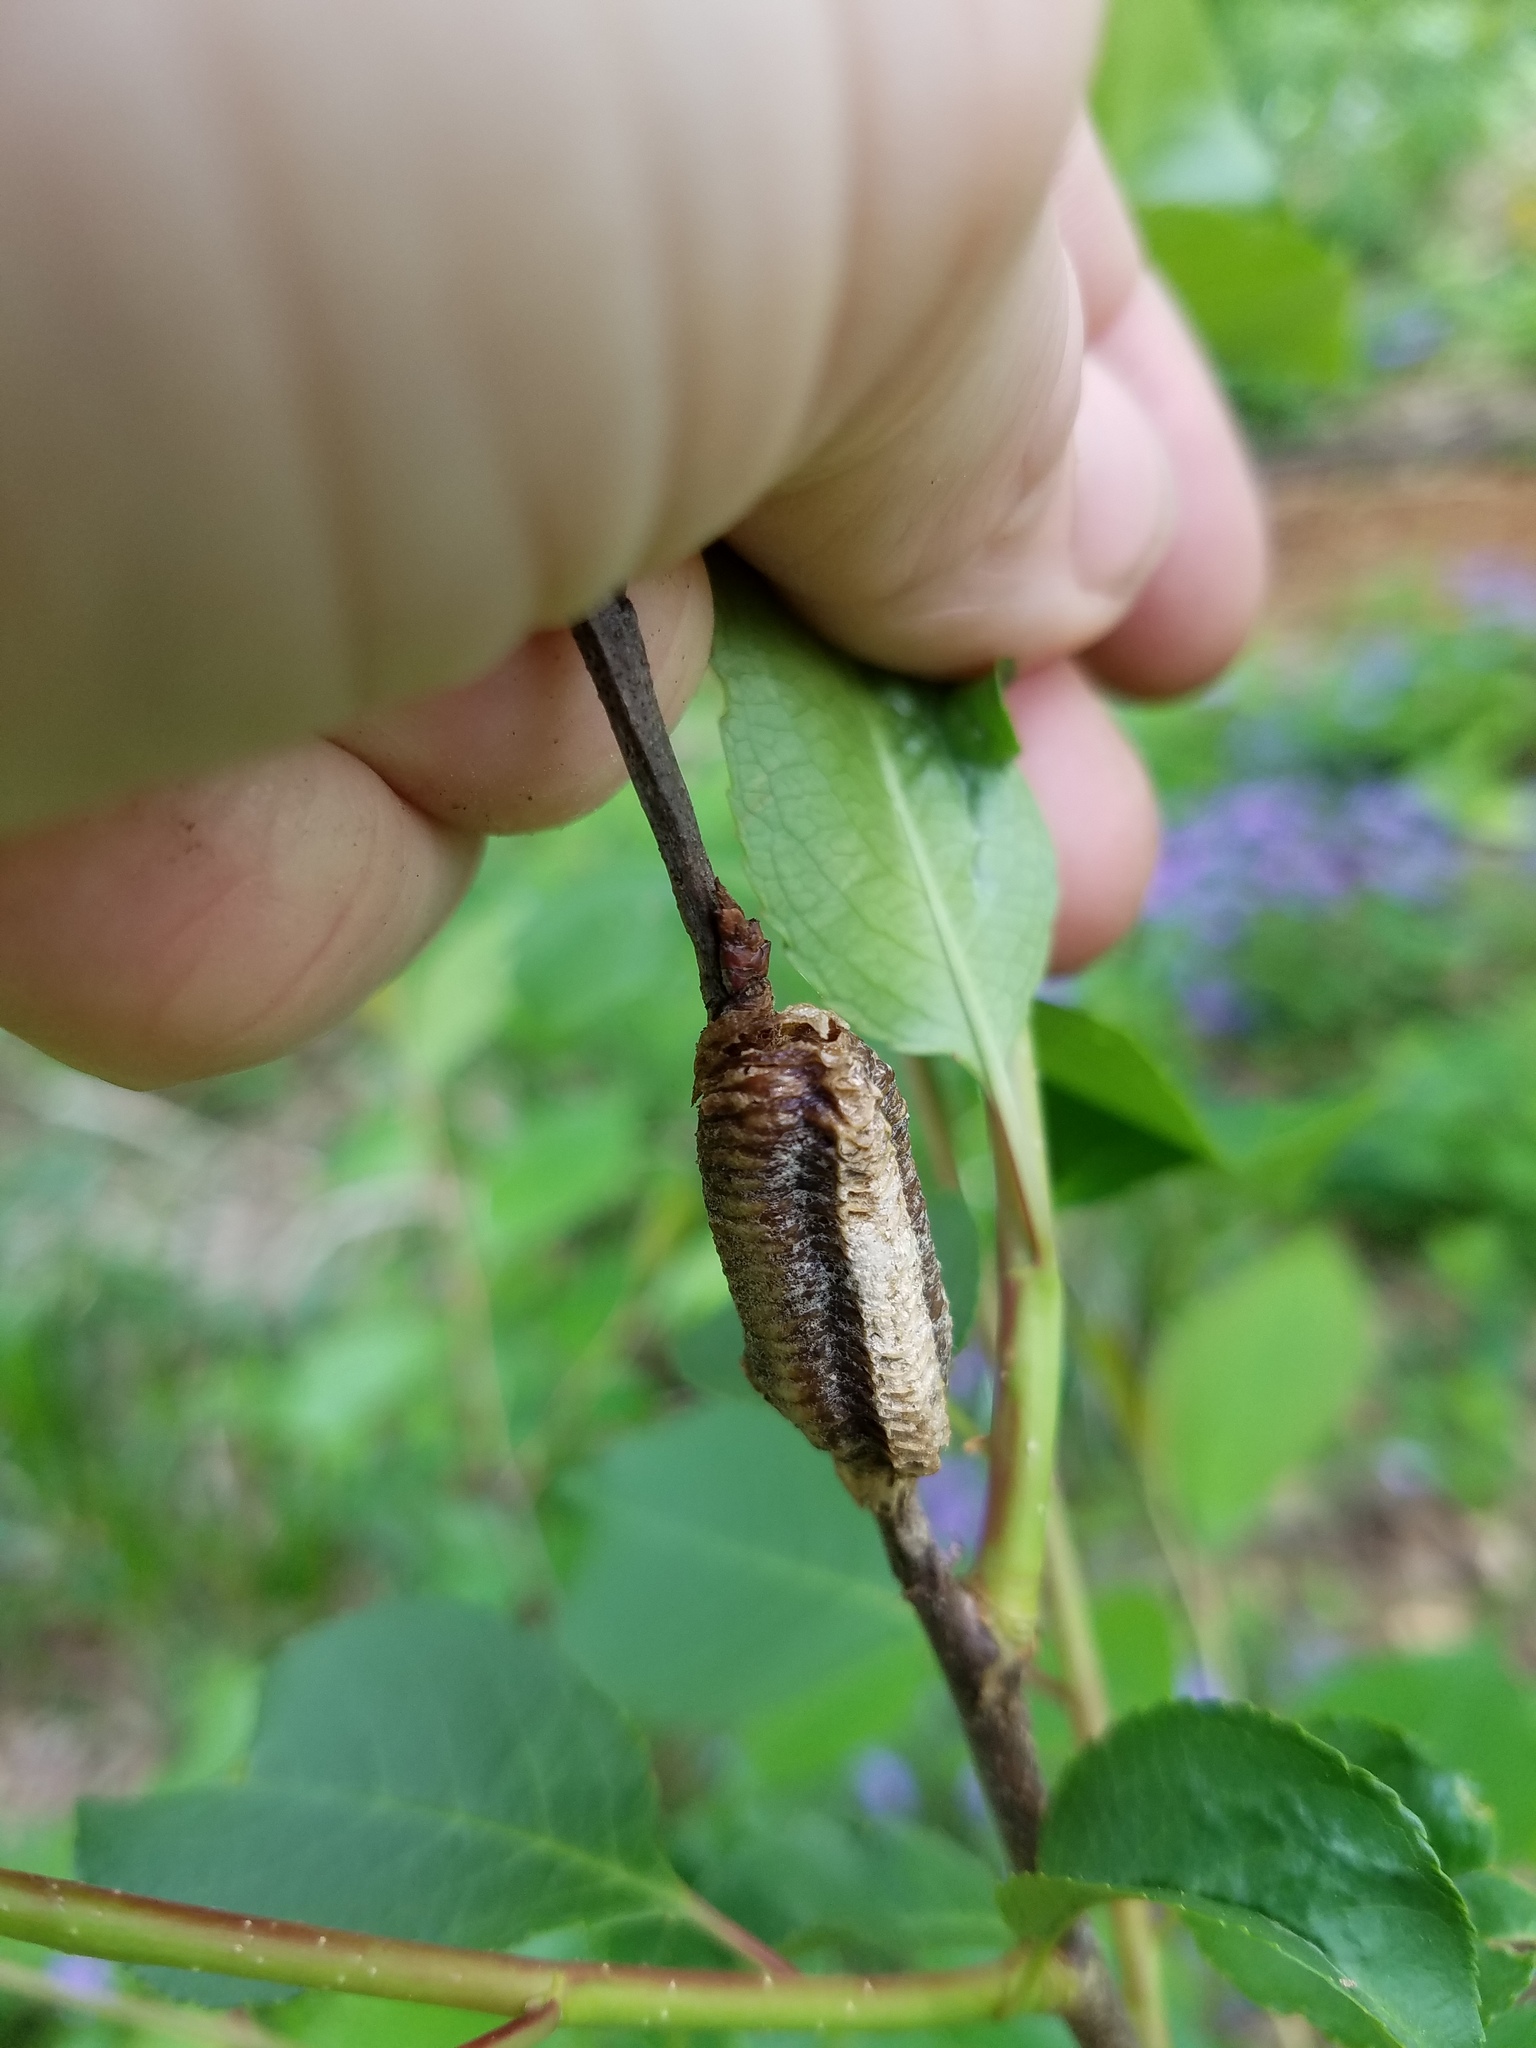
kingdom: Animalia
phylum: Arthropoda
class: Insecta
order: Mantodea
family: Mantidae
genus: Stagmomantis
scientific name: Stagmomantis carolina
